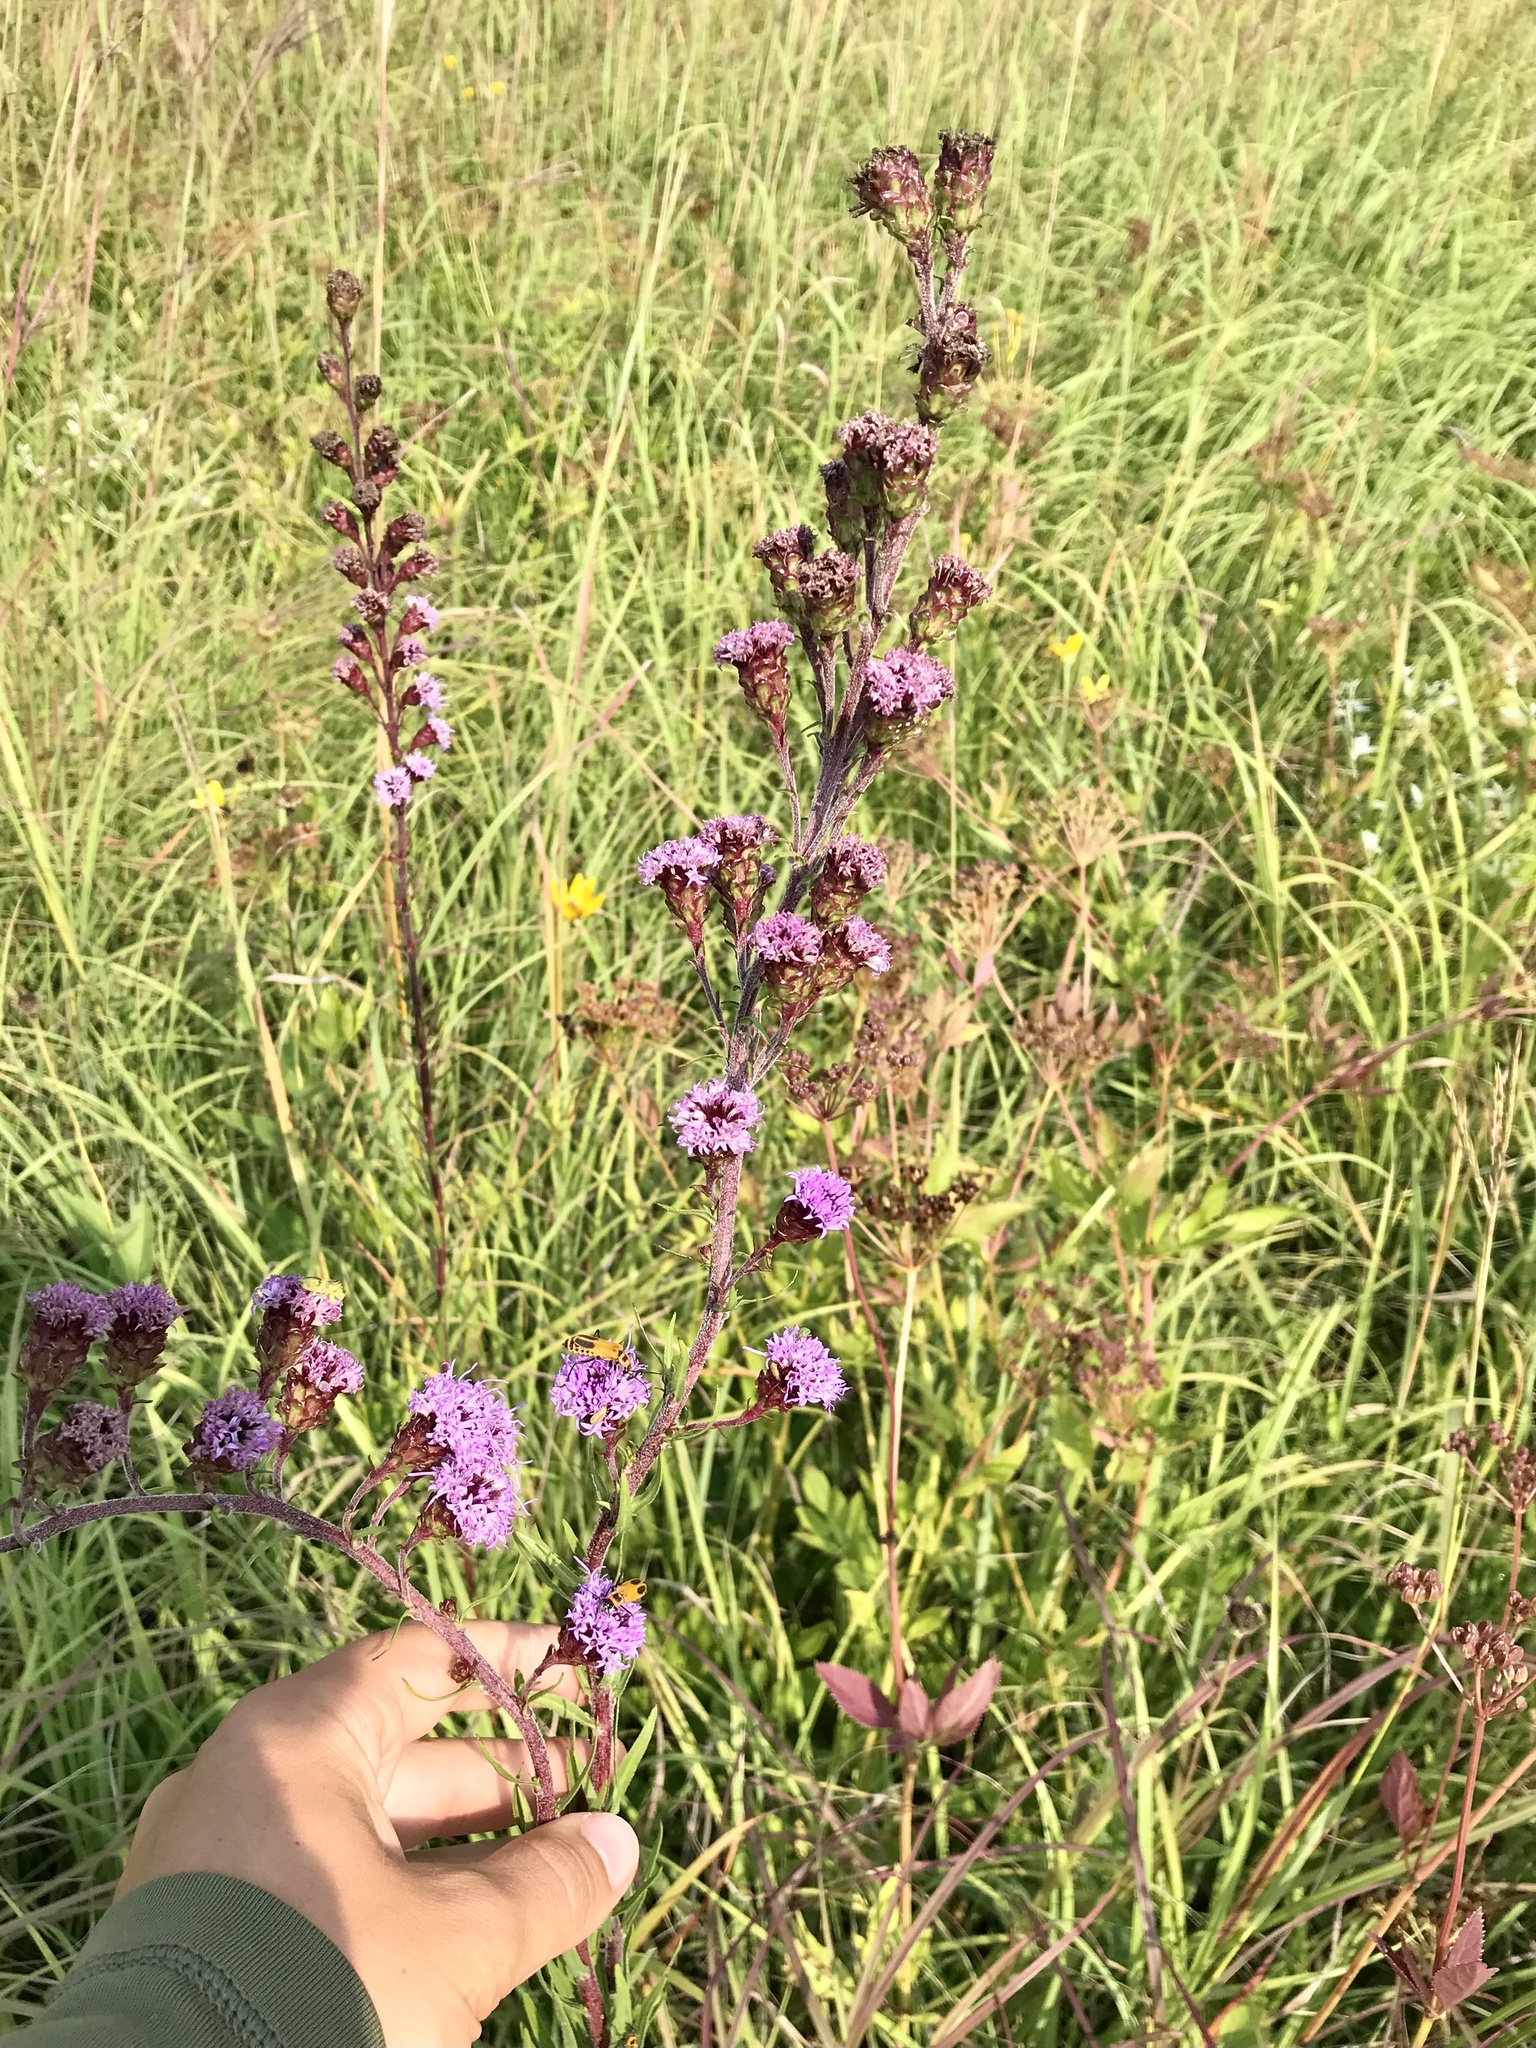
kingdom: Plantae
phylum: Tracheophyta
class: Magnoliopsida
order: Asterales
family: Asteraceae
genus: Liatris
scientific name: Liatris ligulistylis
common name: Northern plains gayfeather
